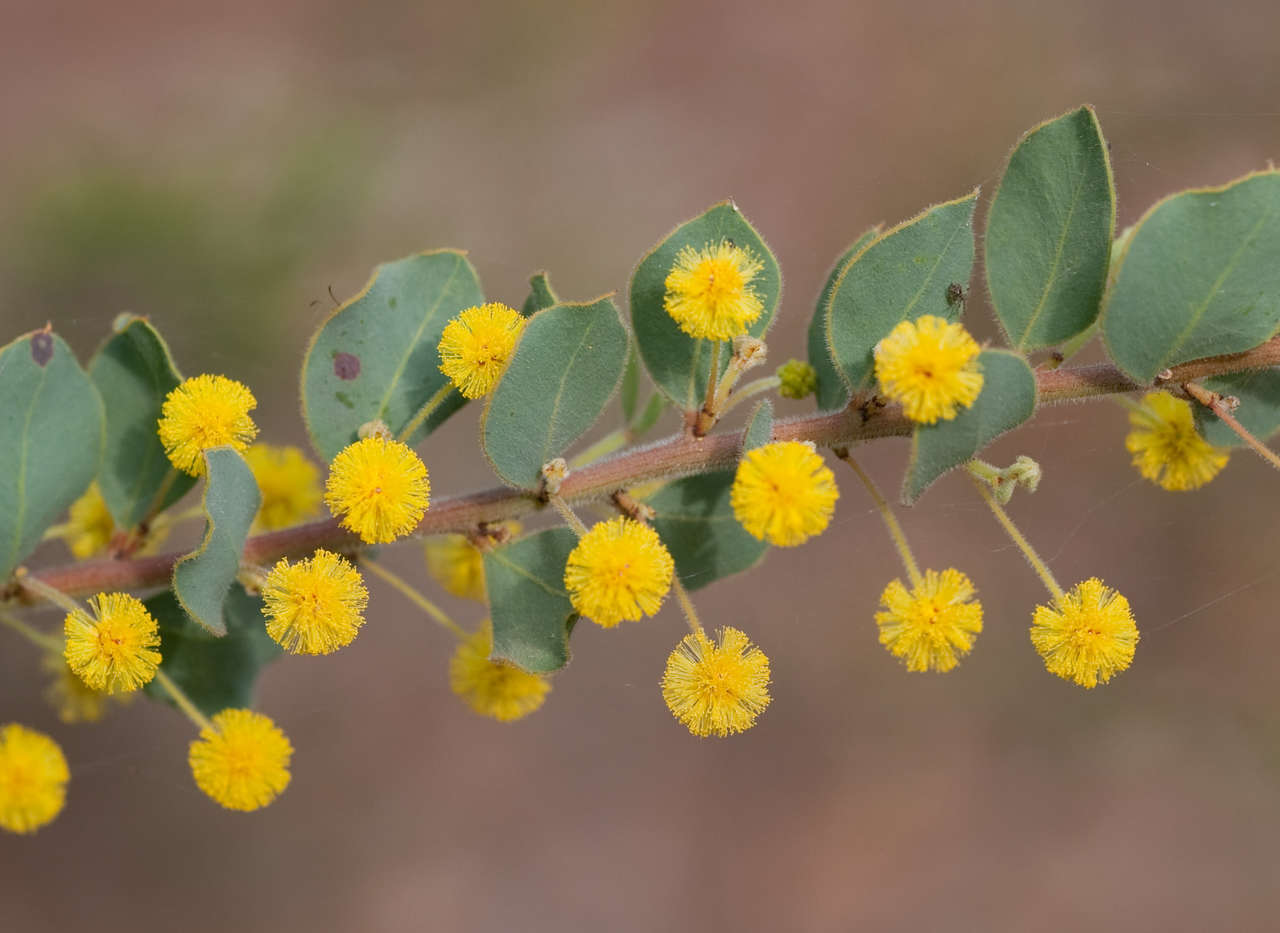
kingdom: Plantae
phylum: Tracheophyta
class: Magnoliopsida
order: Fabales
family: Fabaceae
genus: Acacia
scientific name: Acacia brachybotrya
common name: Grey mulga
